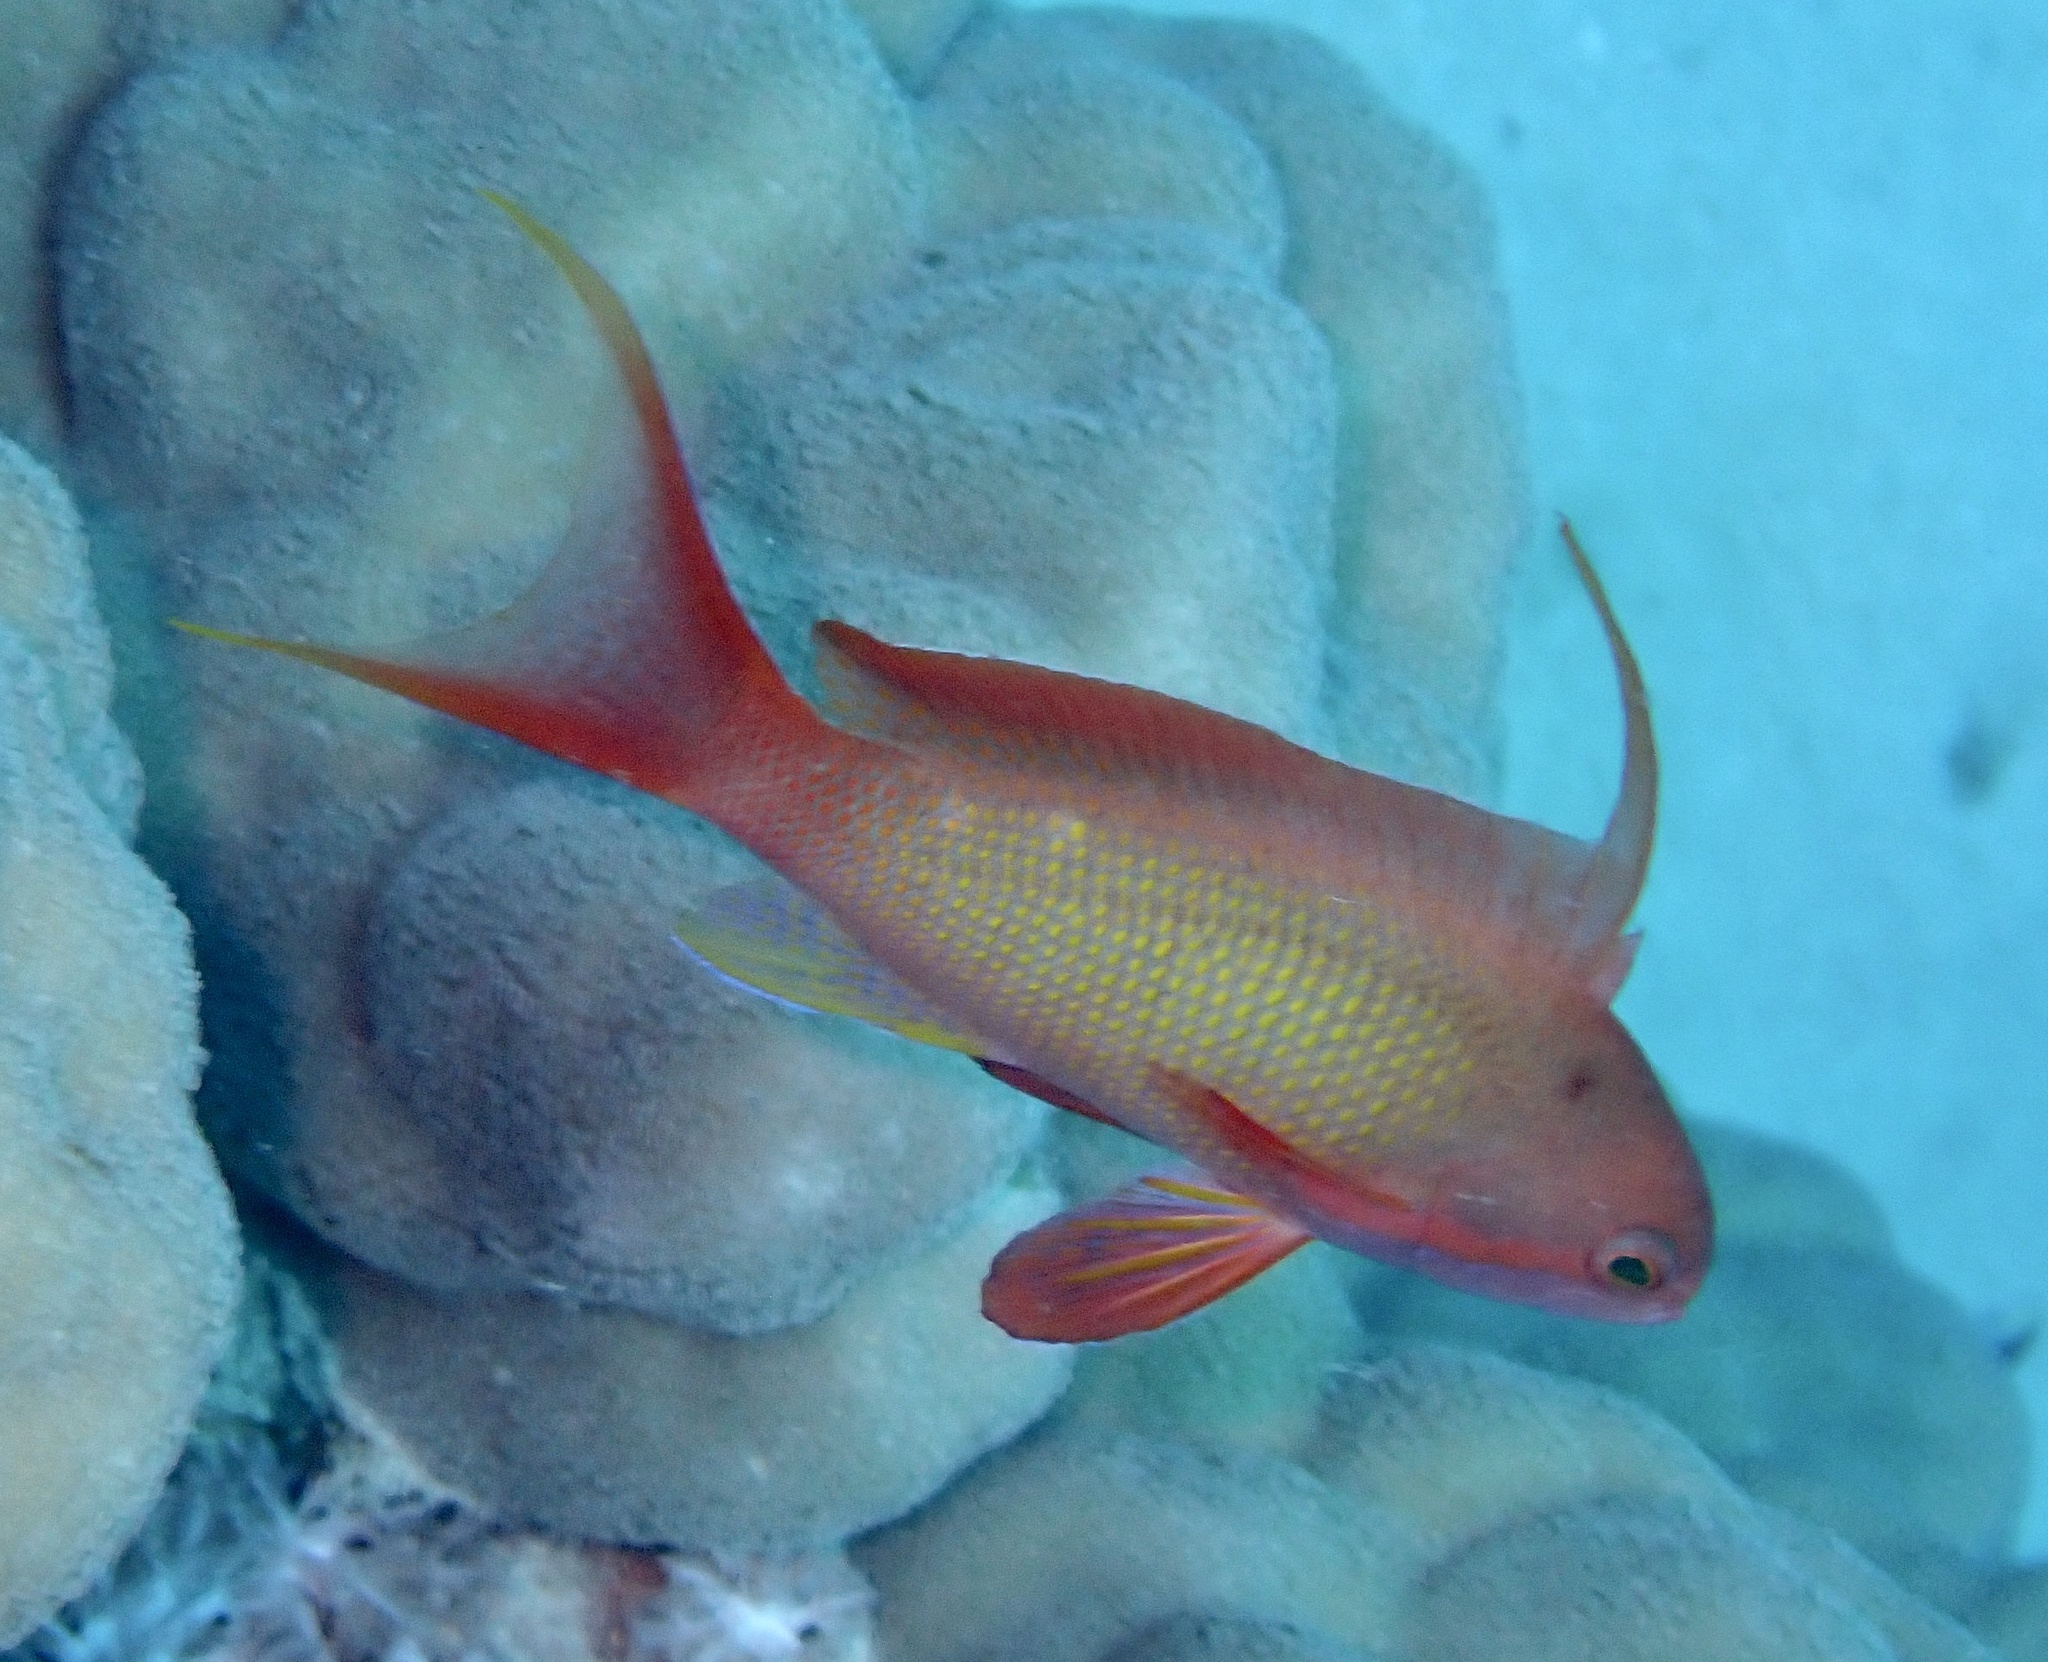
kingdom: Animalia
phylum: Chordata
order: Perciformes
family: Serranidae
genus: Pseudanthias
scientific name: Pseudanthias squamipinnis
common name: Scalefin anthias
